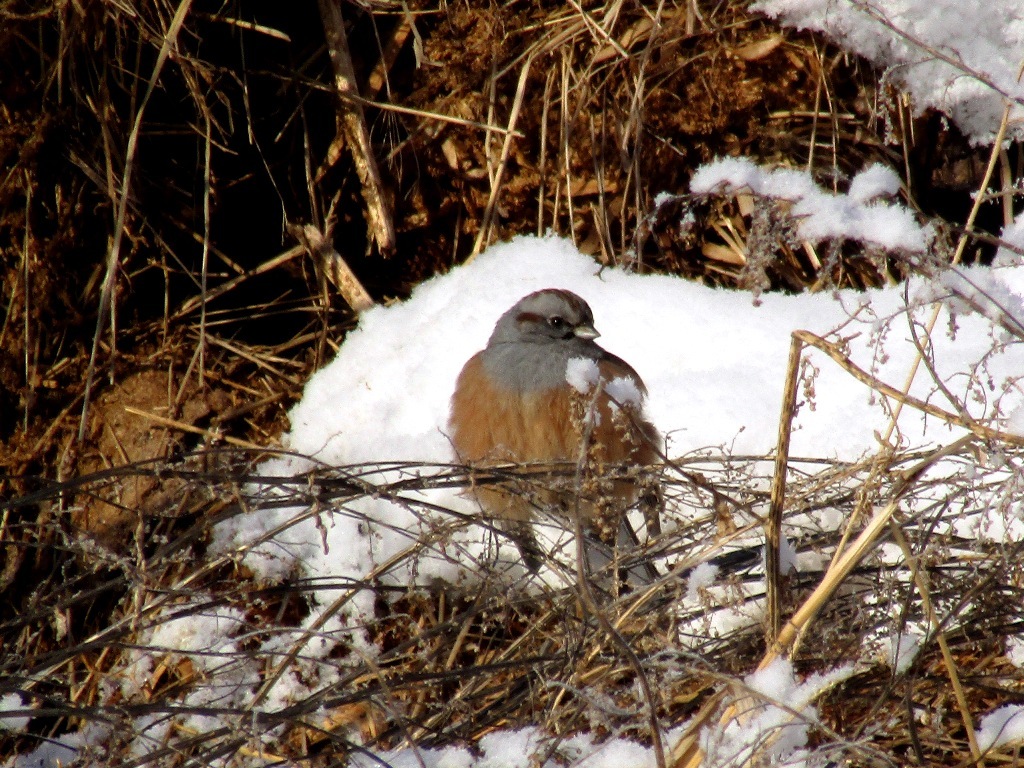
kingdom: Animalia
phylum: Chordata
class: Aves
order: Passeriformes
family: Emberizidae
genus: Emberiza
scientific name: Emberiza godlewskii
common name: Godlewski's bunting
